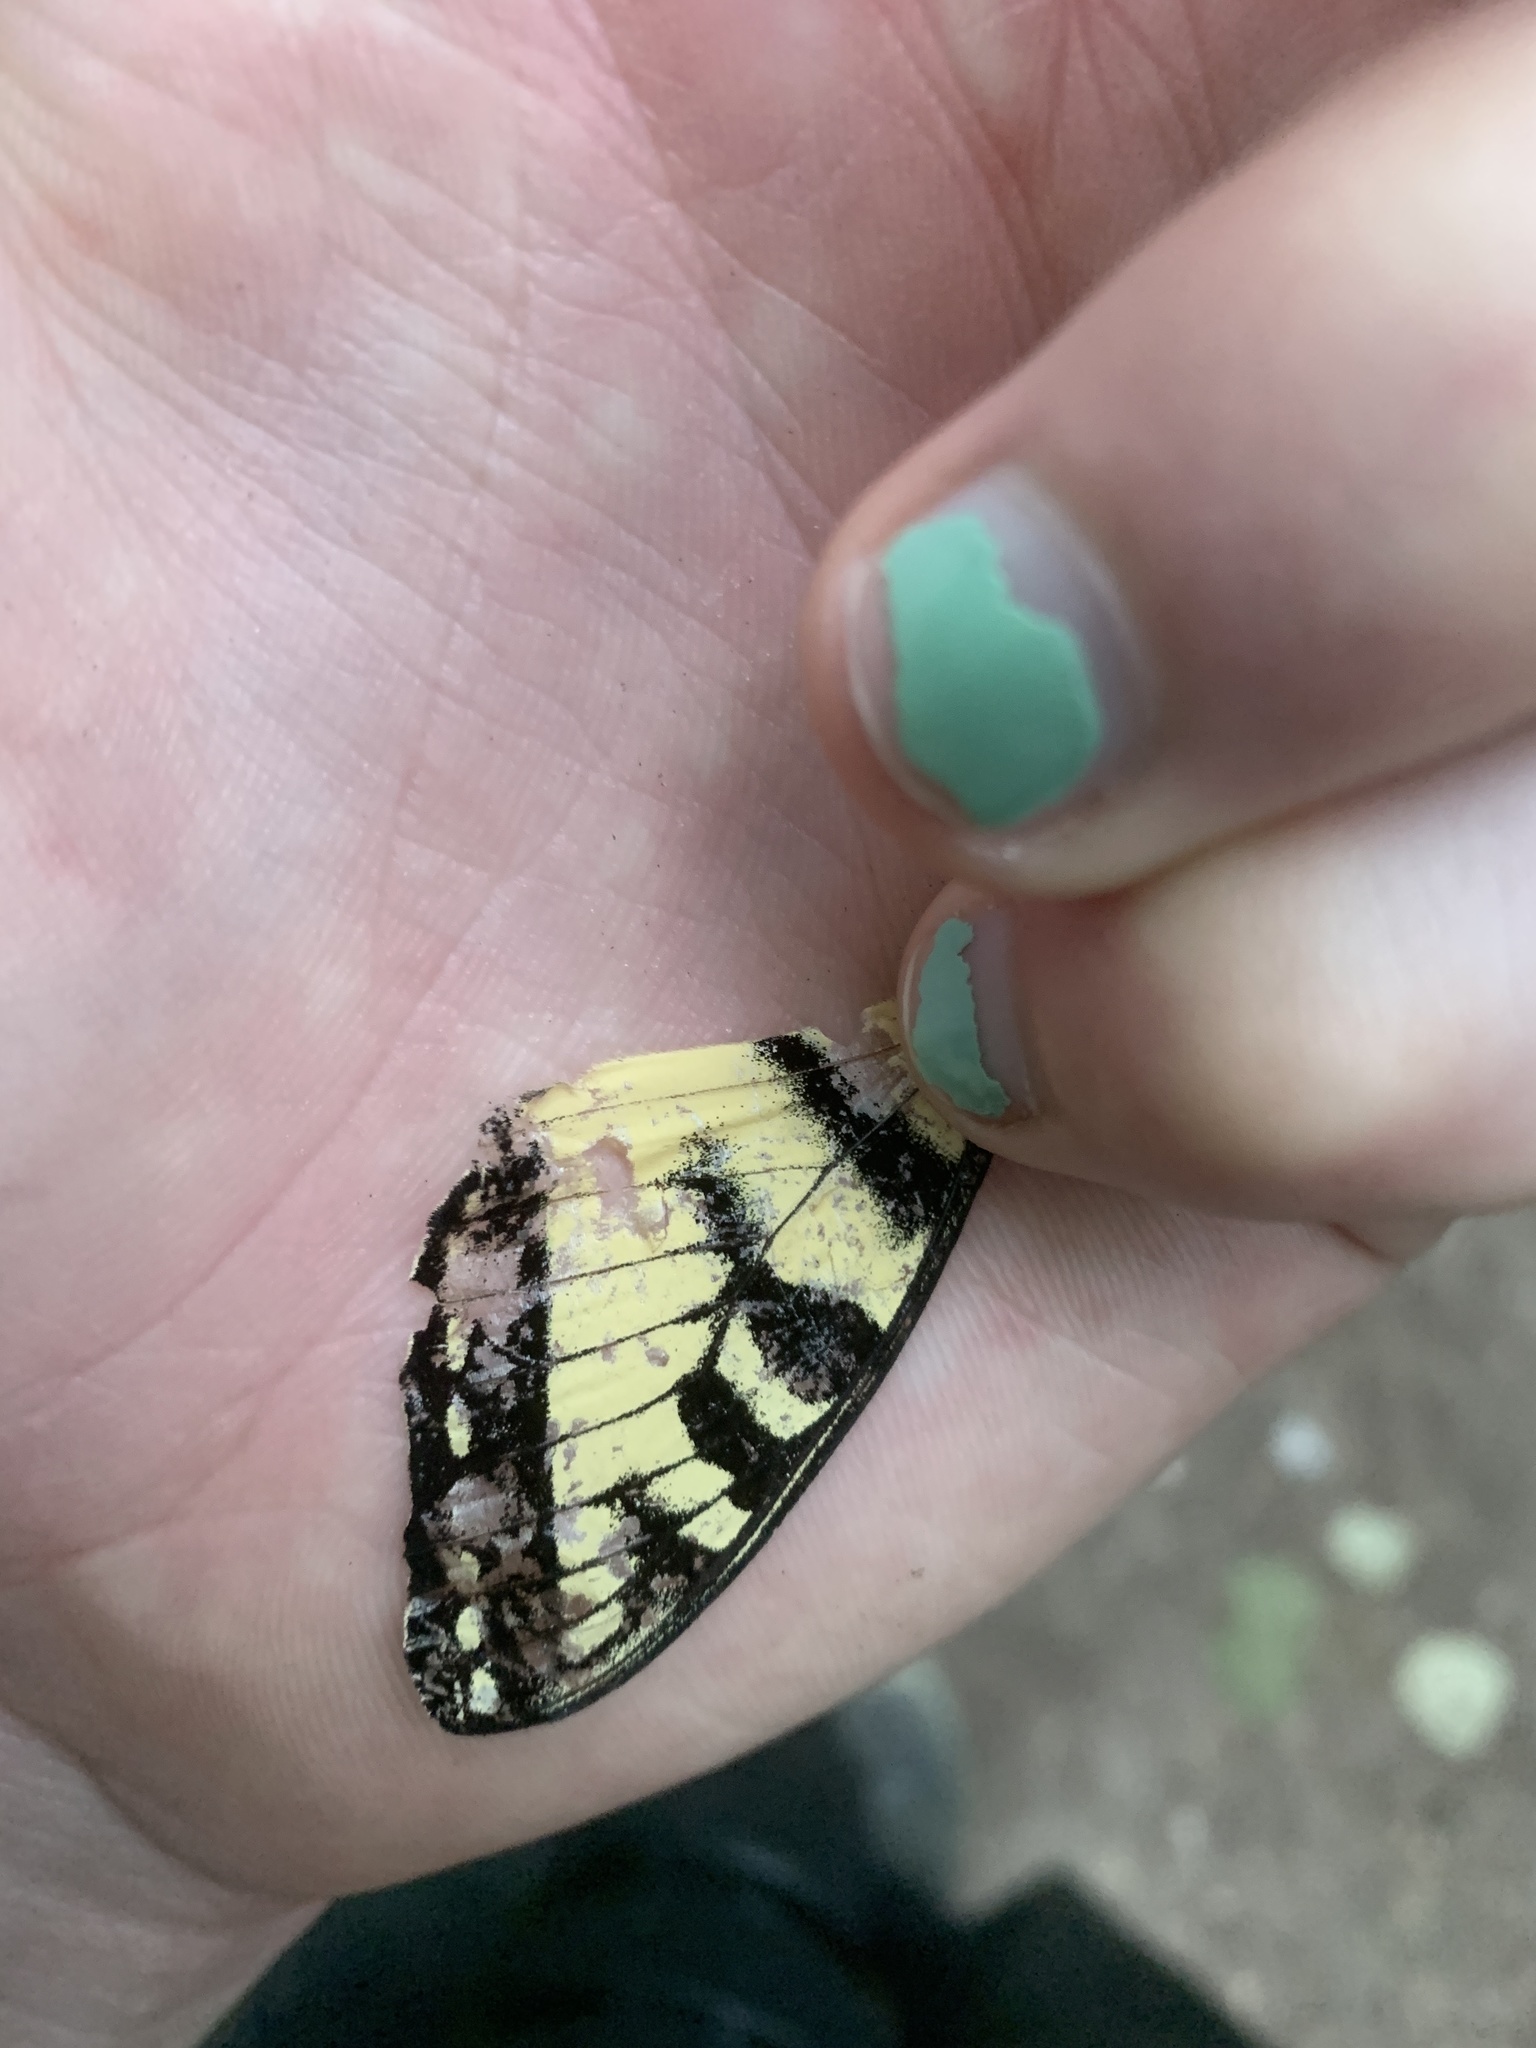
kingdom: Animalia
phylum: Arthropoda
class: Insecta
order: Lepidoptera
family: Papilionidae
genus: Papilio
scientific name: Papilio canadensis
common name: Canadian tiger swallowtail
